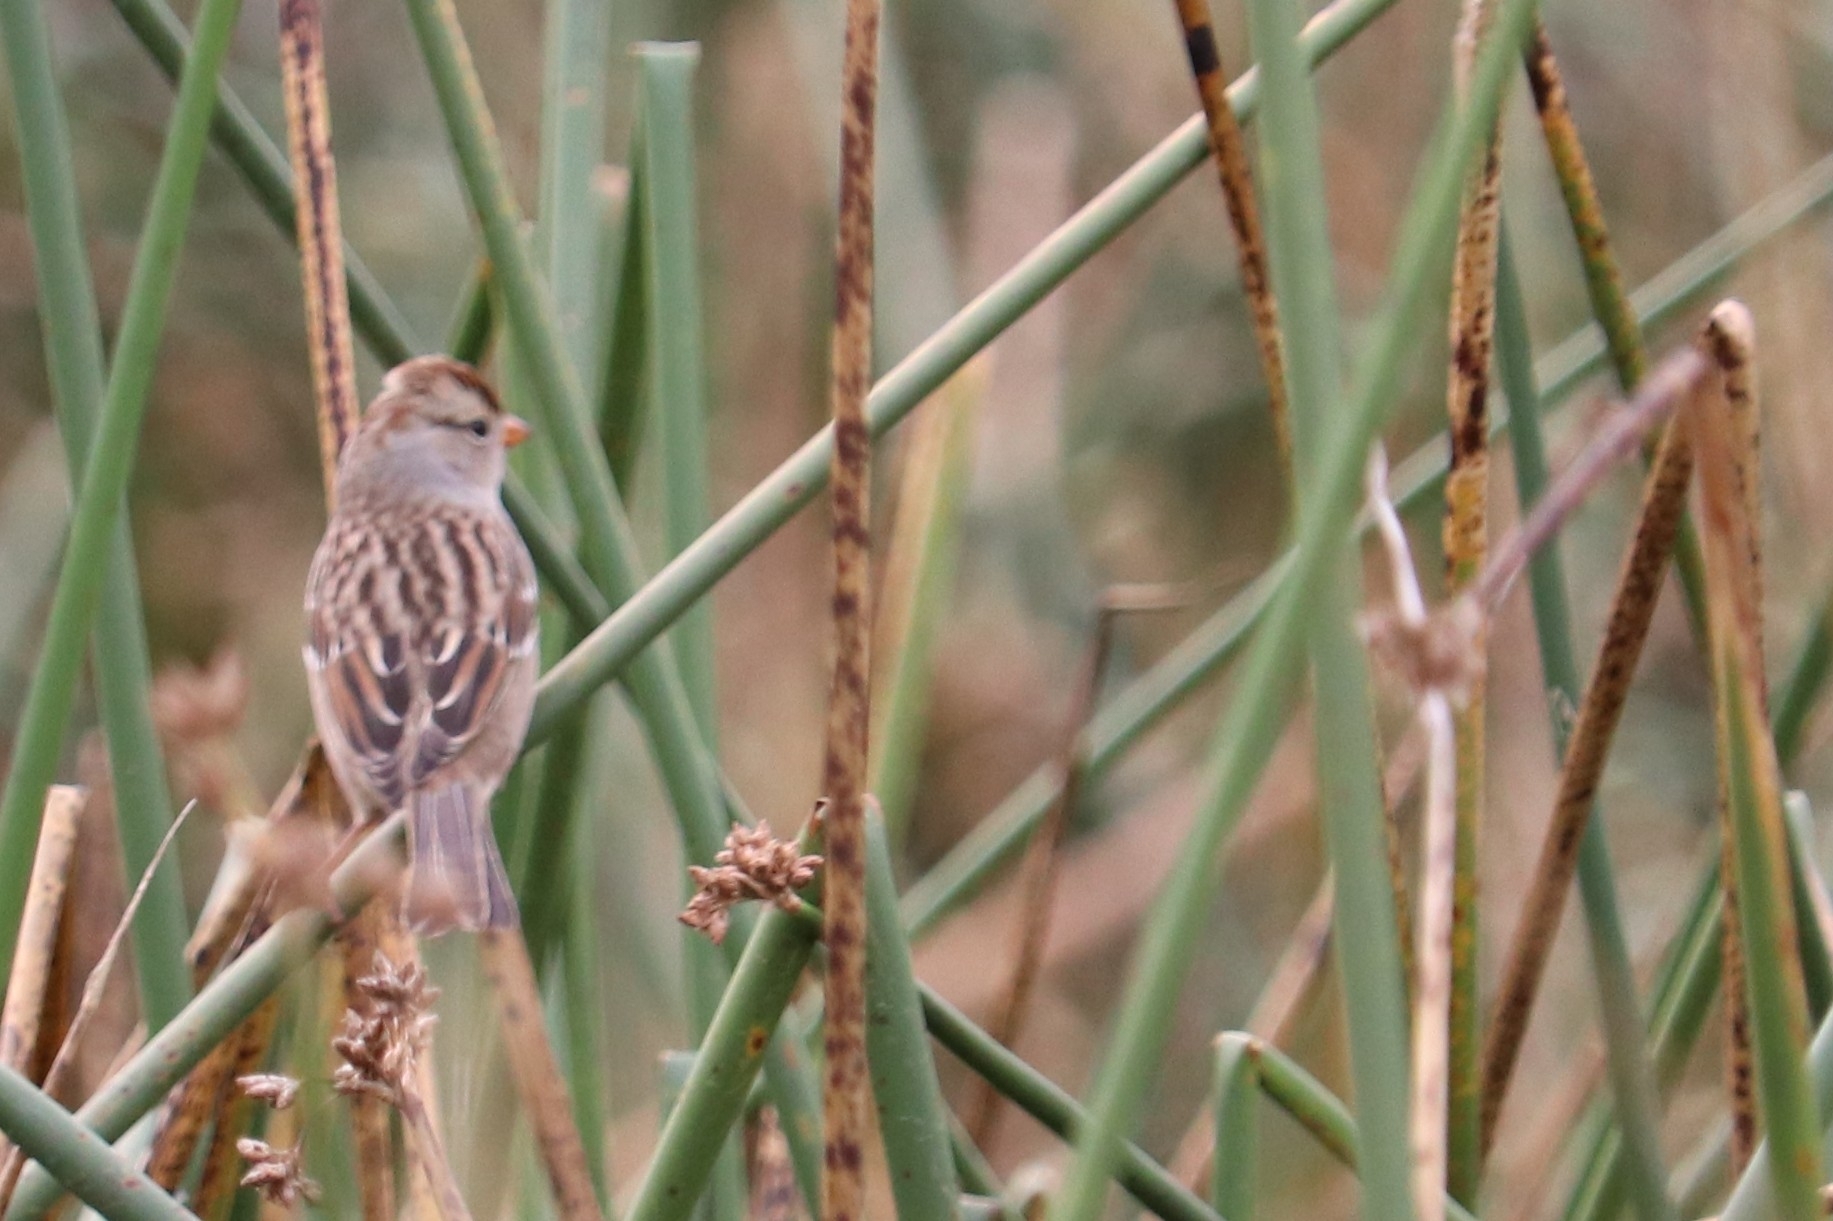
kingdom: Animalia
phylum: Chordata
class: Aves
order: Passeriformes
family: Passerellidae
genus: Zonotrichia
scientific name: Zonotrichia leucophrys
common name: White-crowned sparrow
